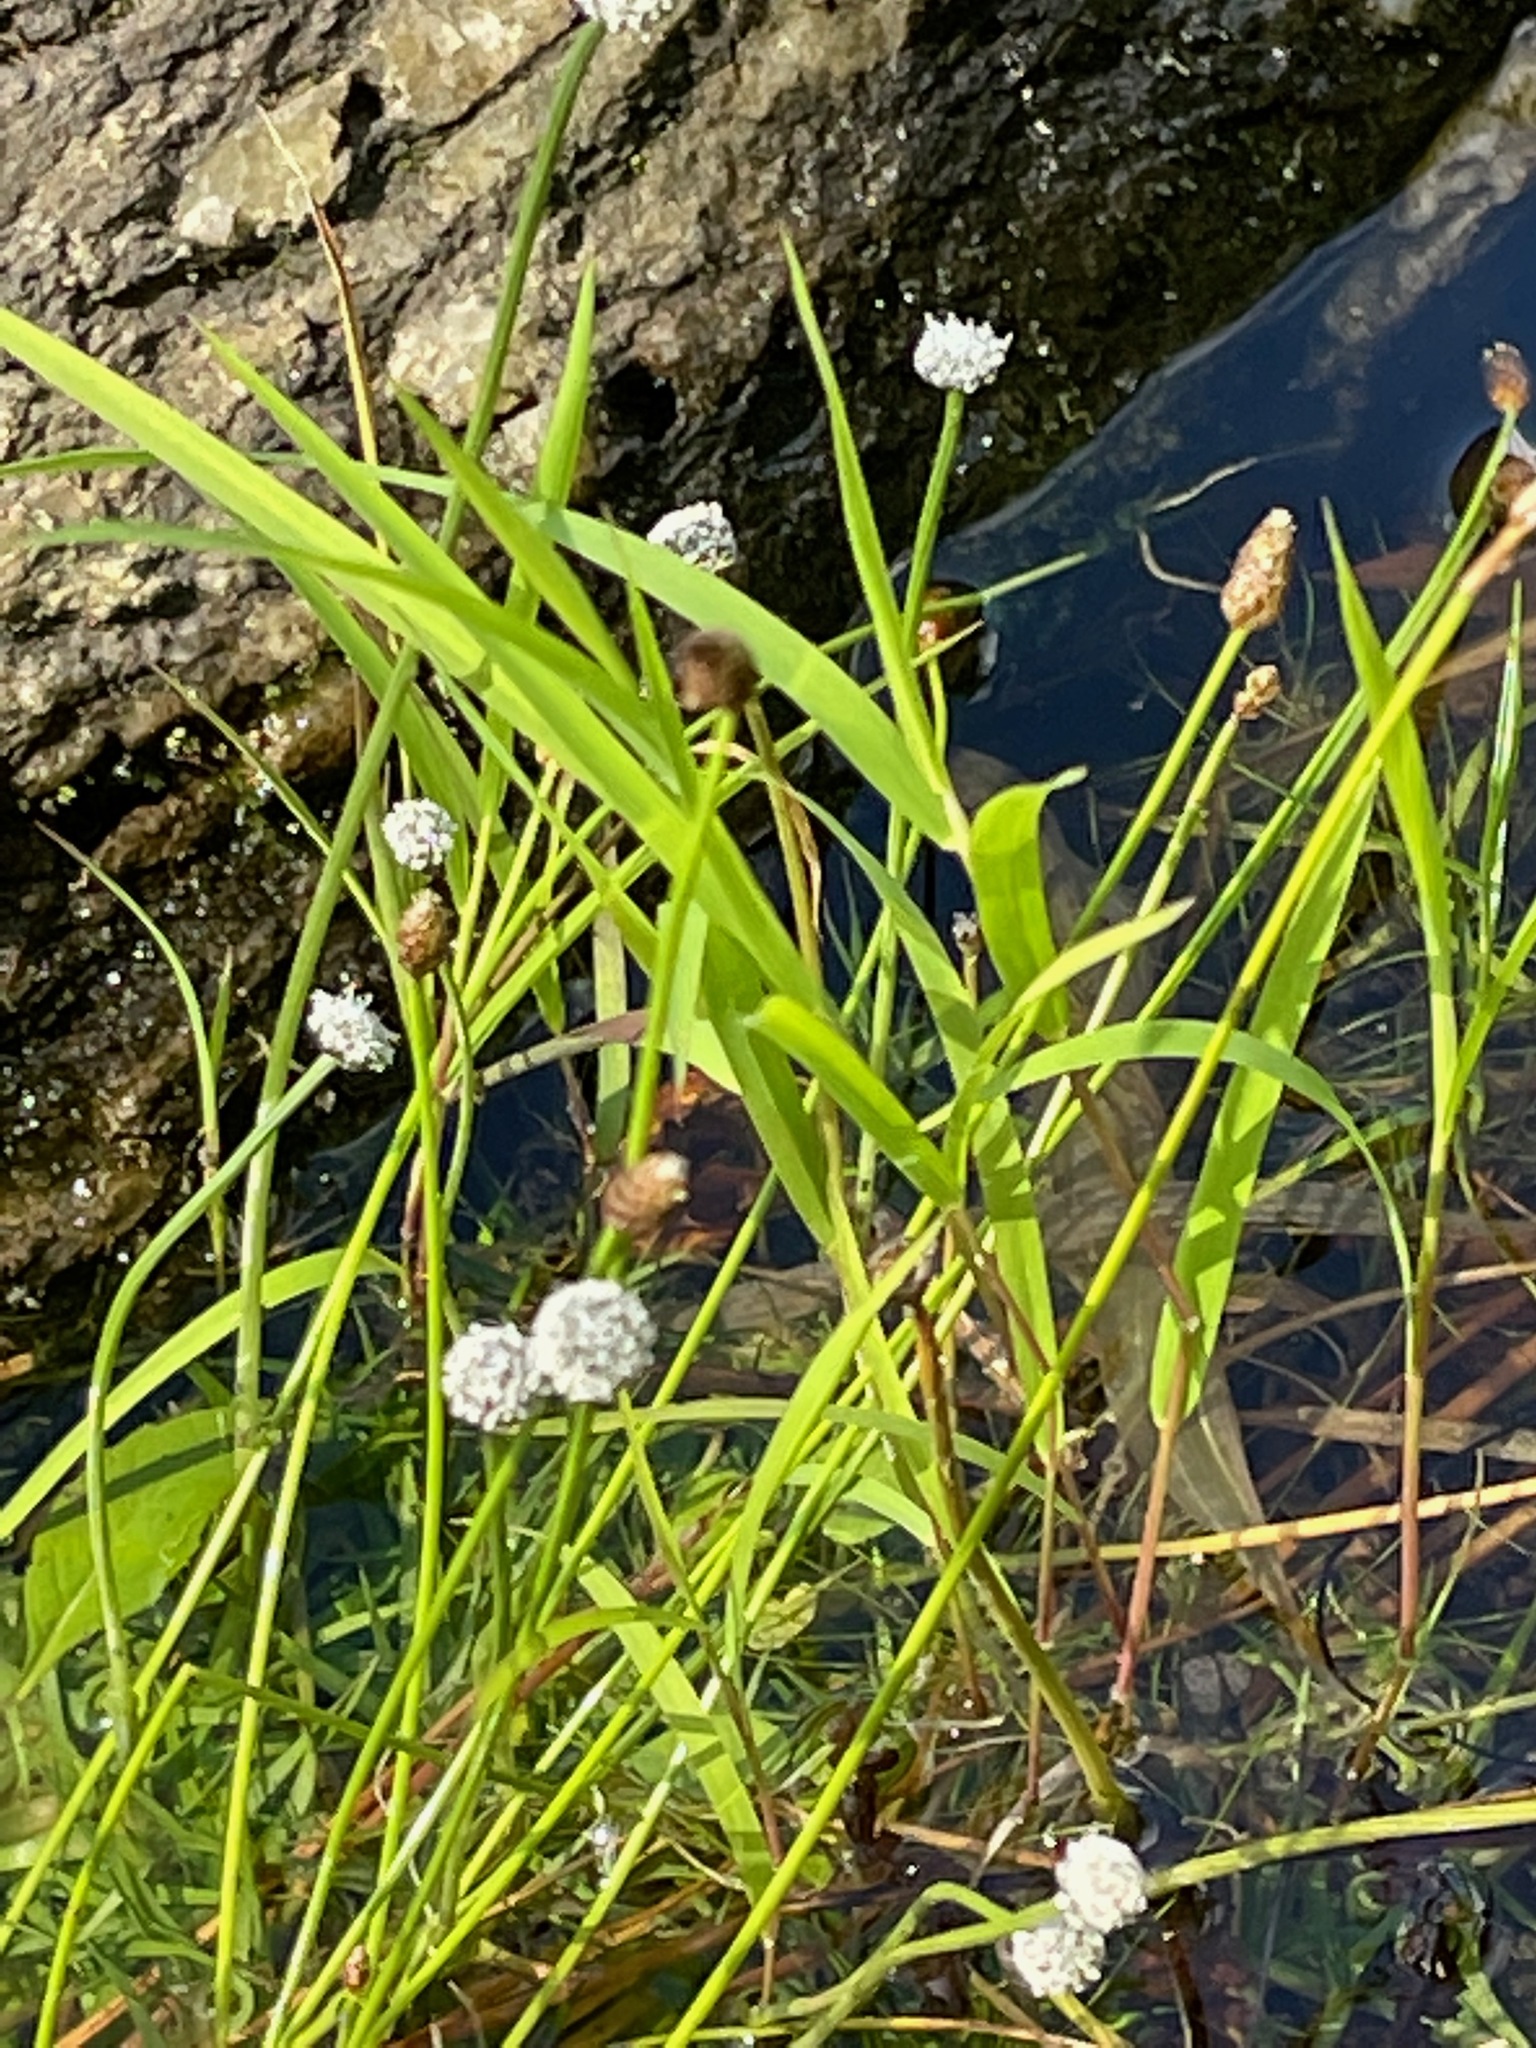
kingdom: Plantae
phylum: Tracheophyta
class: Liliopsida
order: Poales
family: Eriocaulaceae
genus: Eriocaulon
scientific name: Eriocaulon aquaticum
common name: Pipewort
